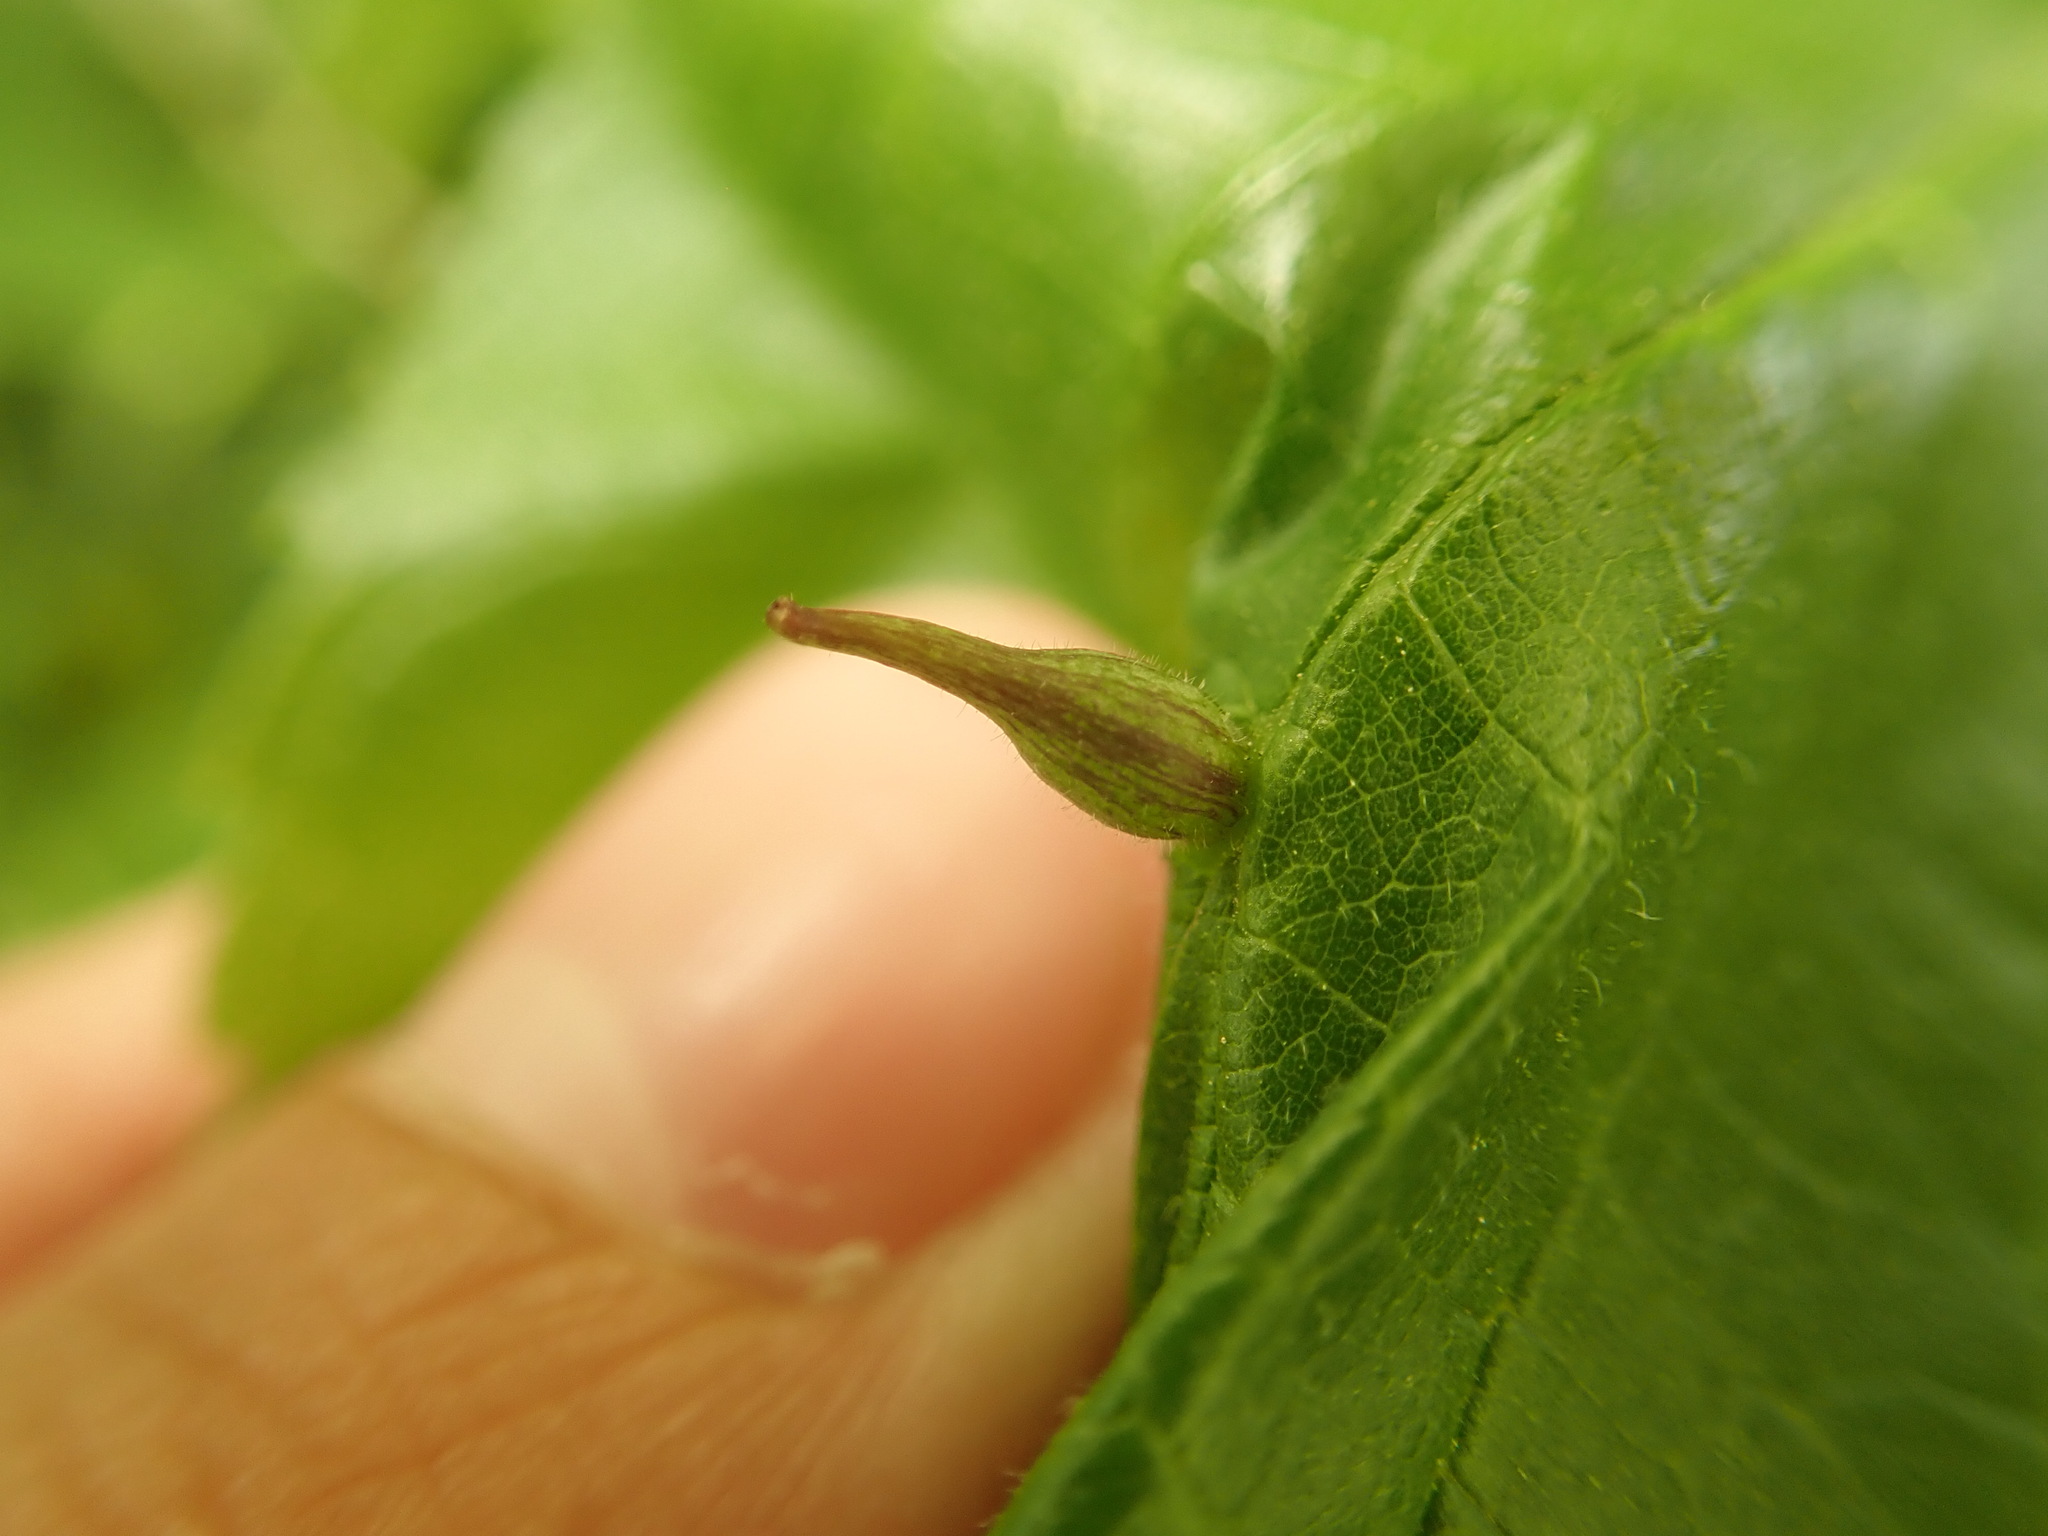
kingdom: Animalia
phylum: Arthropoda
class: Insecta
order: Diptera
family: Cecidomyiidae
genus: Celticecis
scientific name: Celticecis ovata
